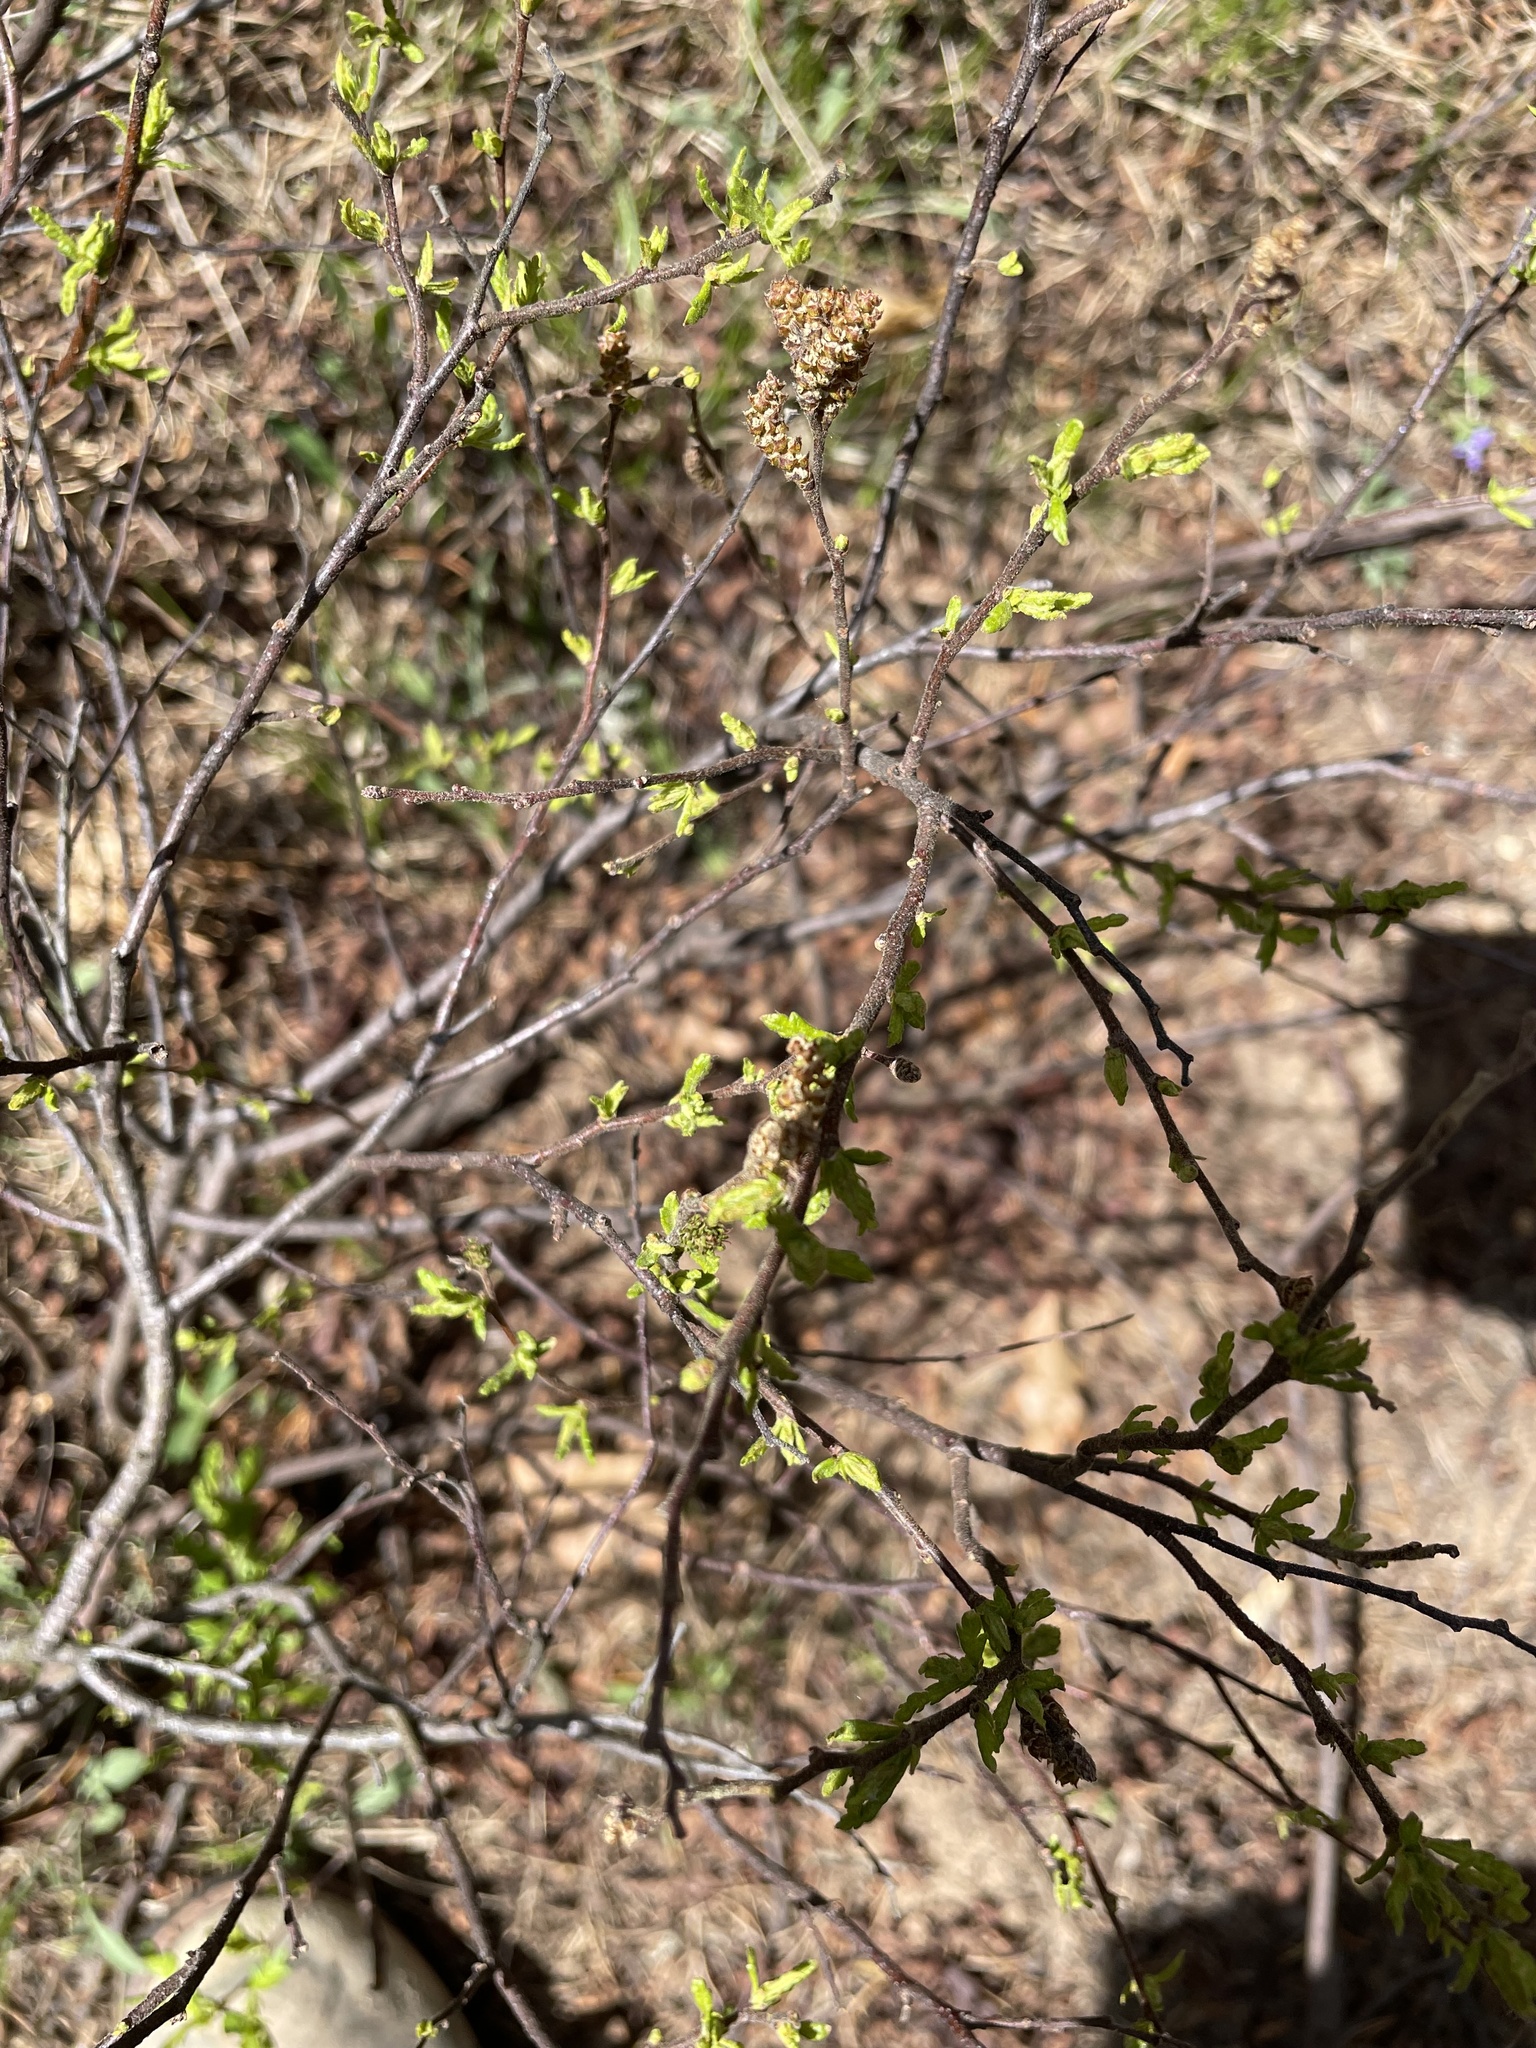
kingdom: Plantae
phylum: Tracheophyta
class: Magnoliopsida
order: Fagales
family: Myricaceae
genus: Comptonia
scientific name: Comptonia peregrina
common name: Sweet-fern
